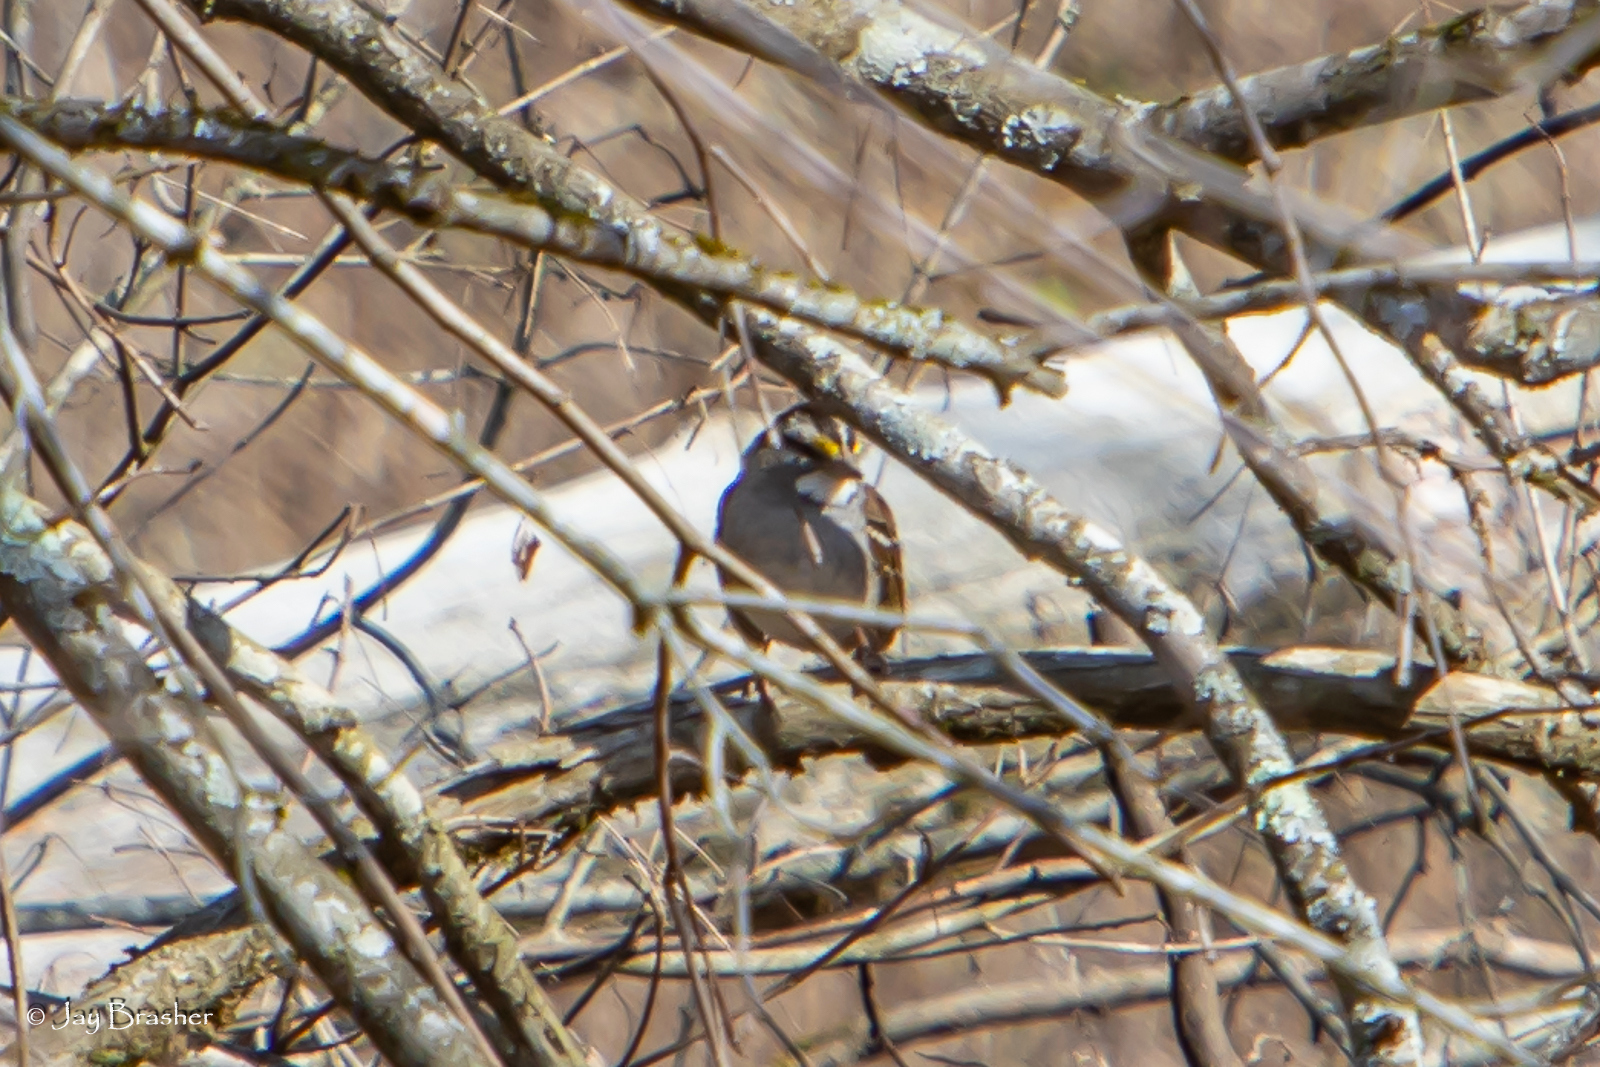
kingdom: Animalia
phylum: Chordata
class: Aves
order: Passeriformes
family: Passerellidae
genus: Zonotrichia
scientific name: Zonotrichia albicollis
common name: White-throated sparrow
